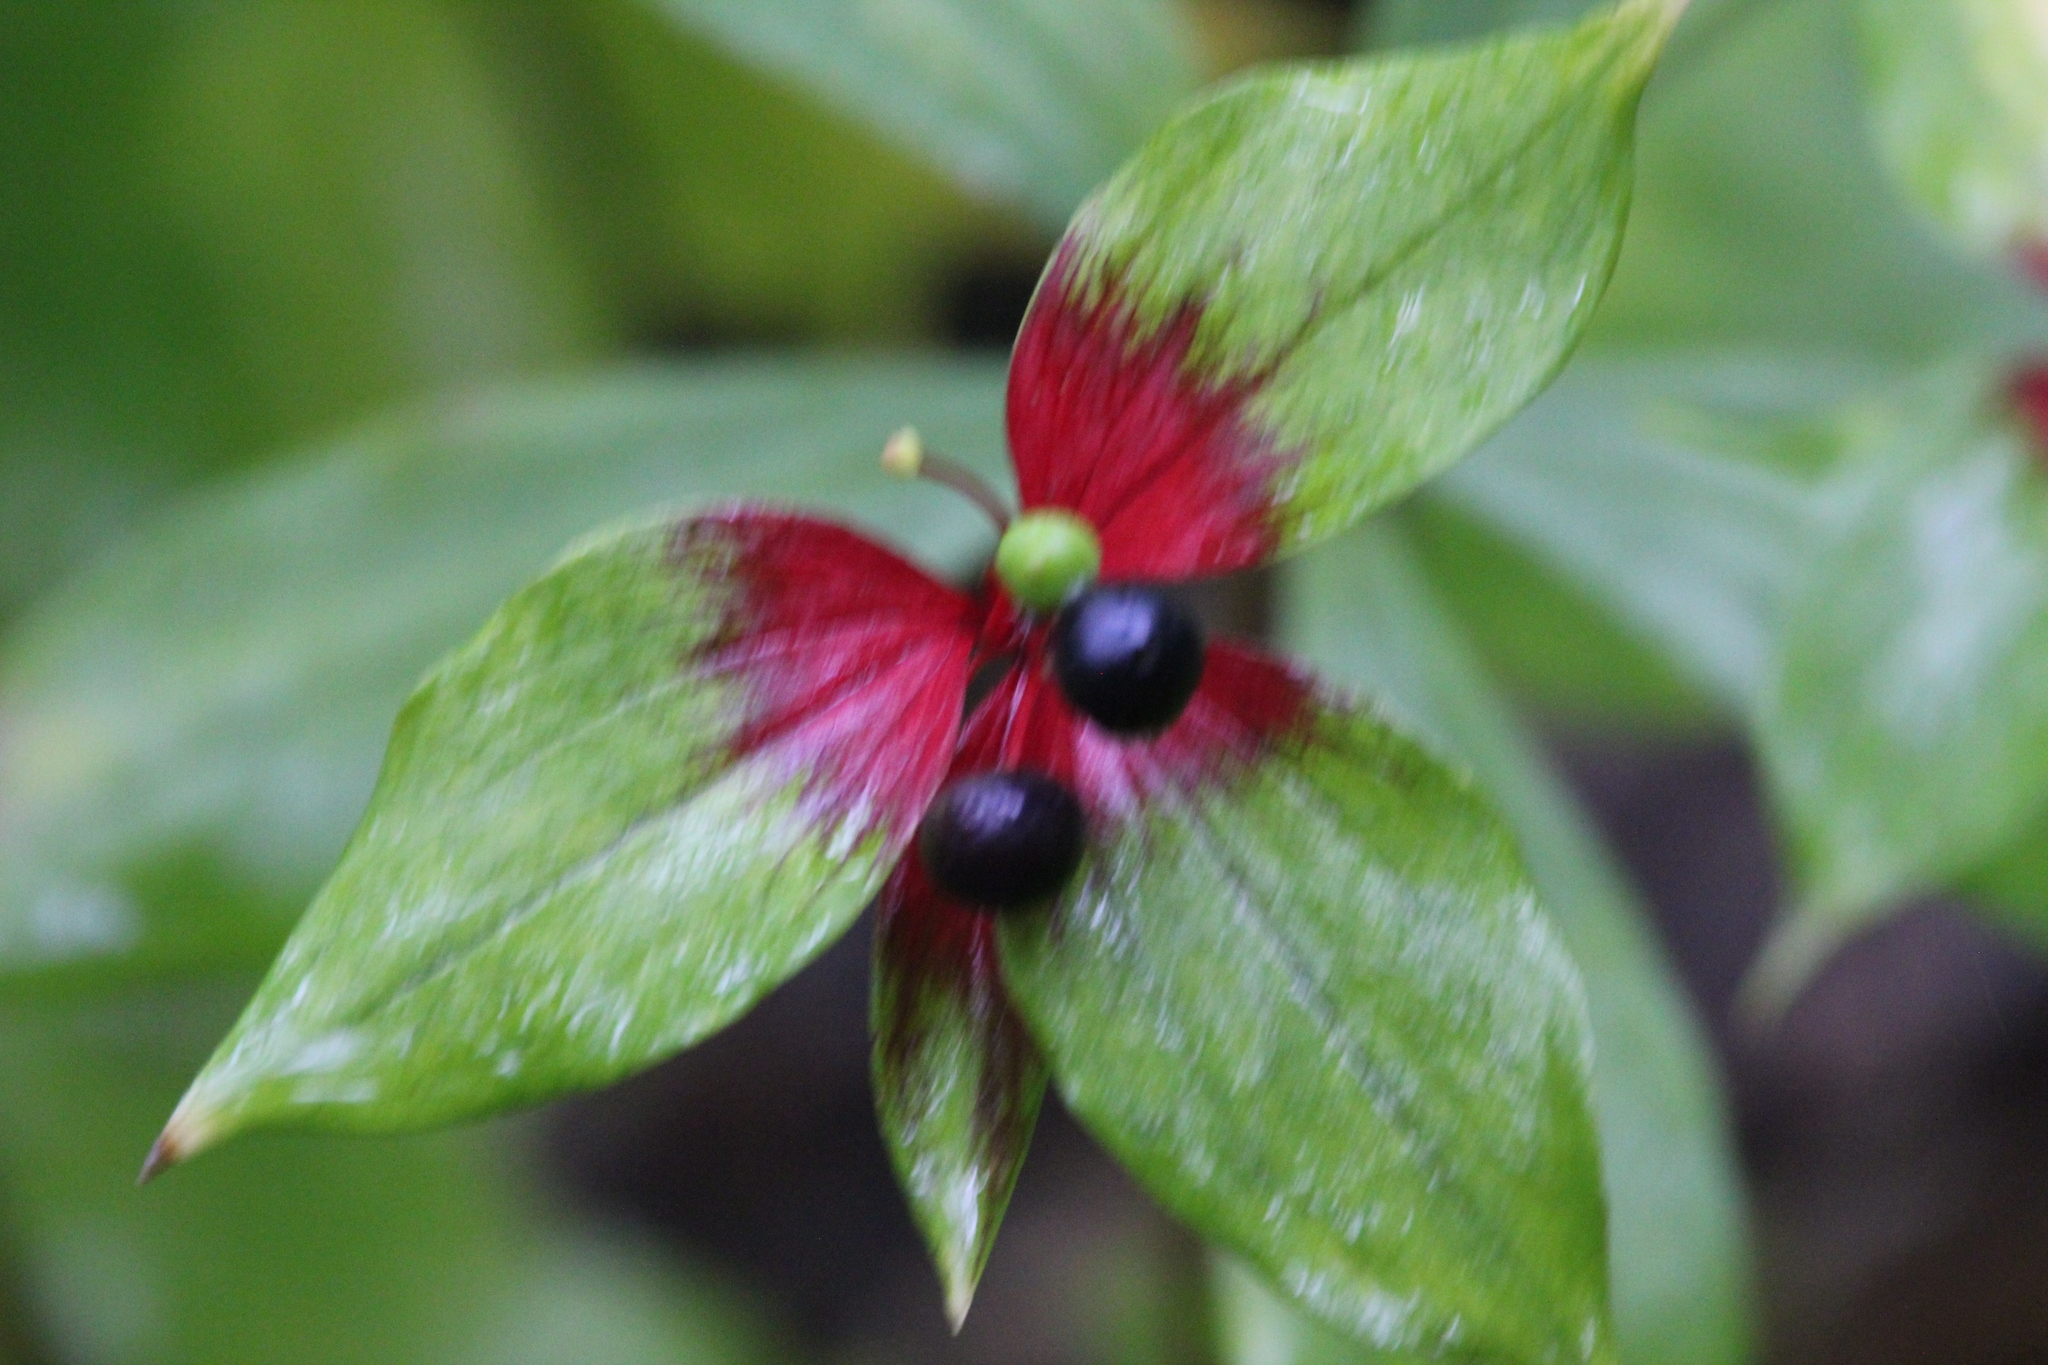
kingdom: Plantae
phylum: Tracheophyta
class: Liliopsida
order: Liliales
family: Liliaceae
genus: Medeola
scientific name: Medeola virginiana
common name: Indian cucumber-root
